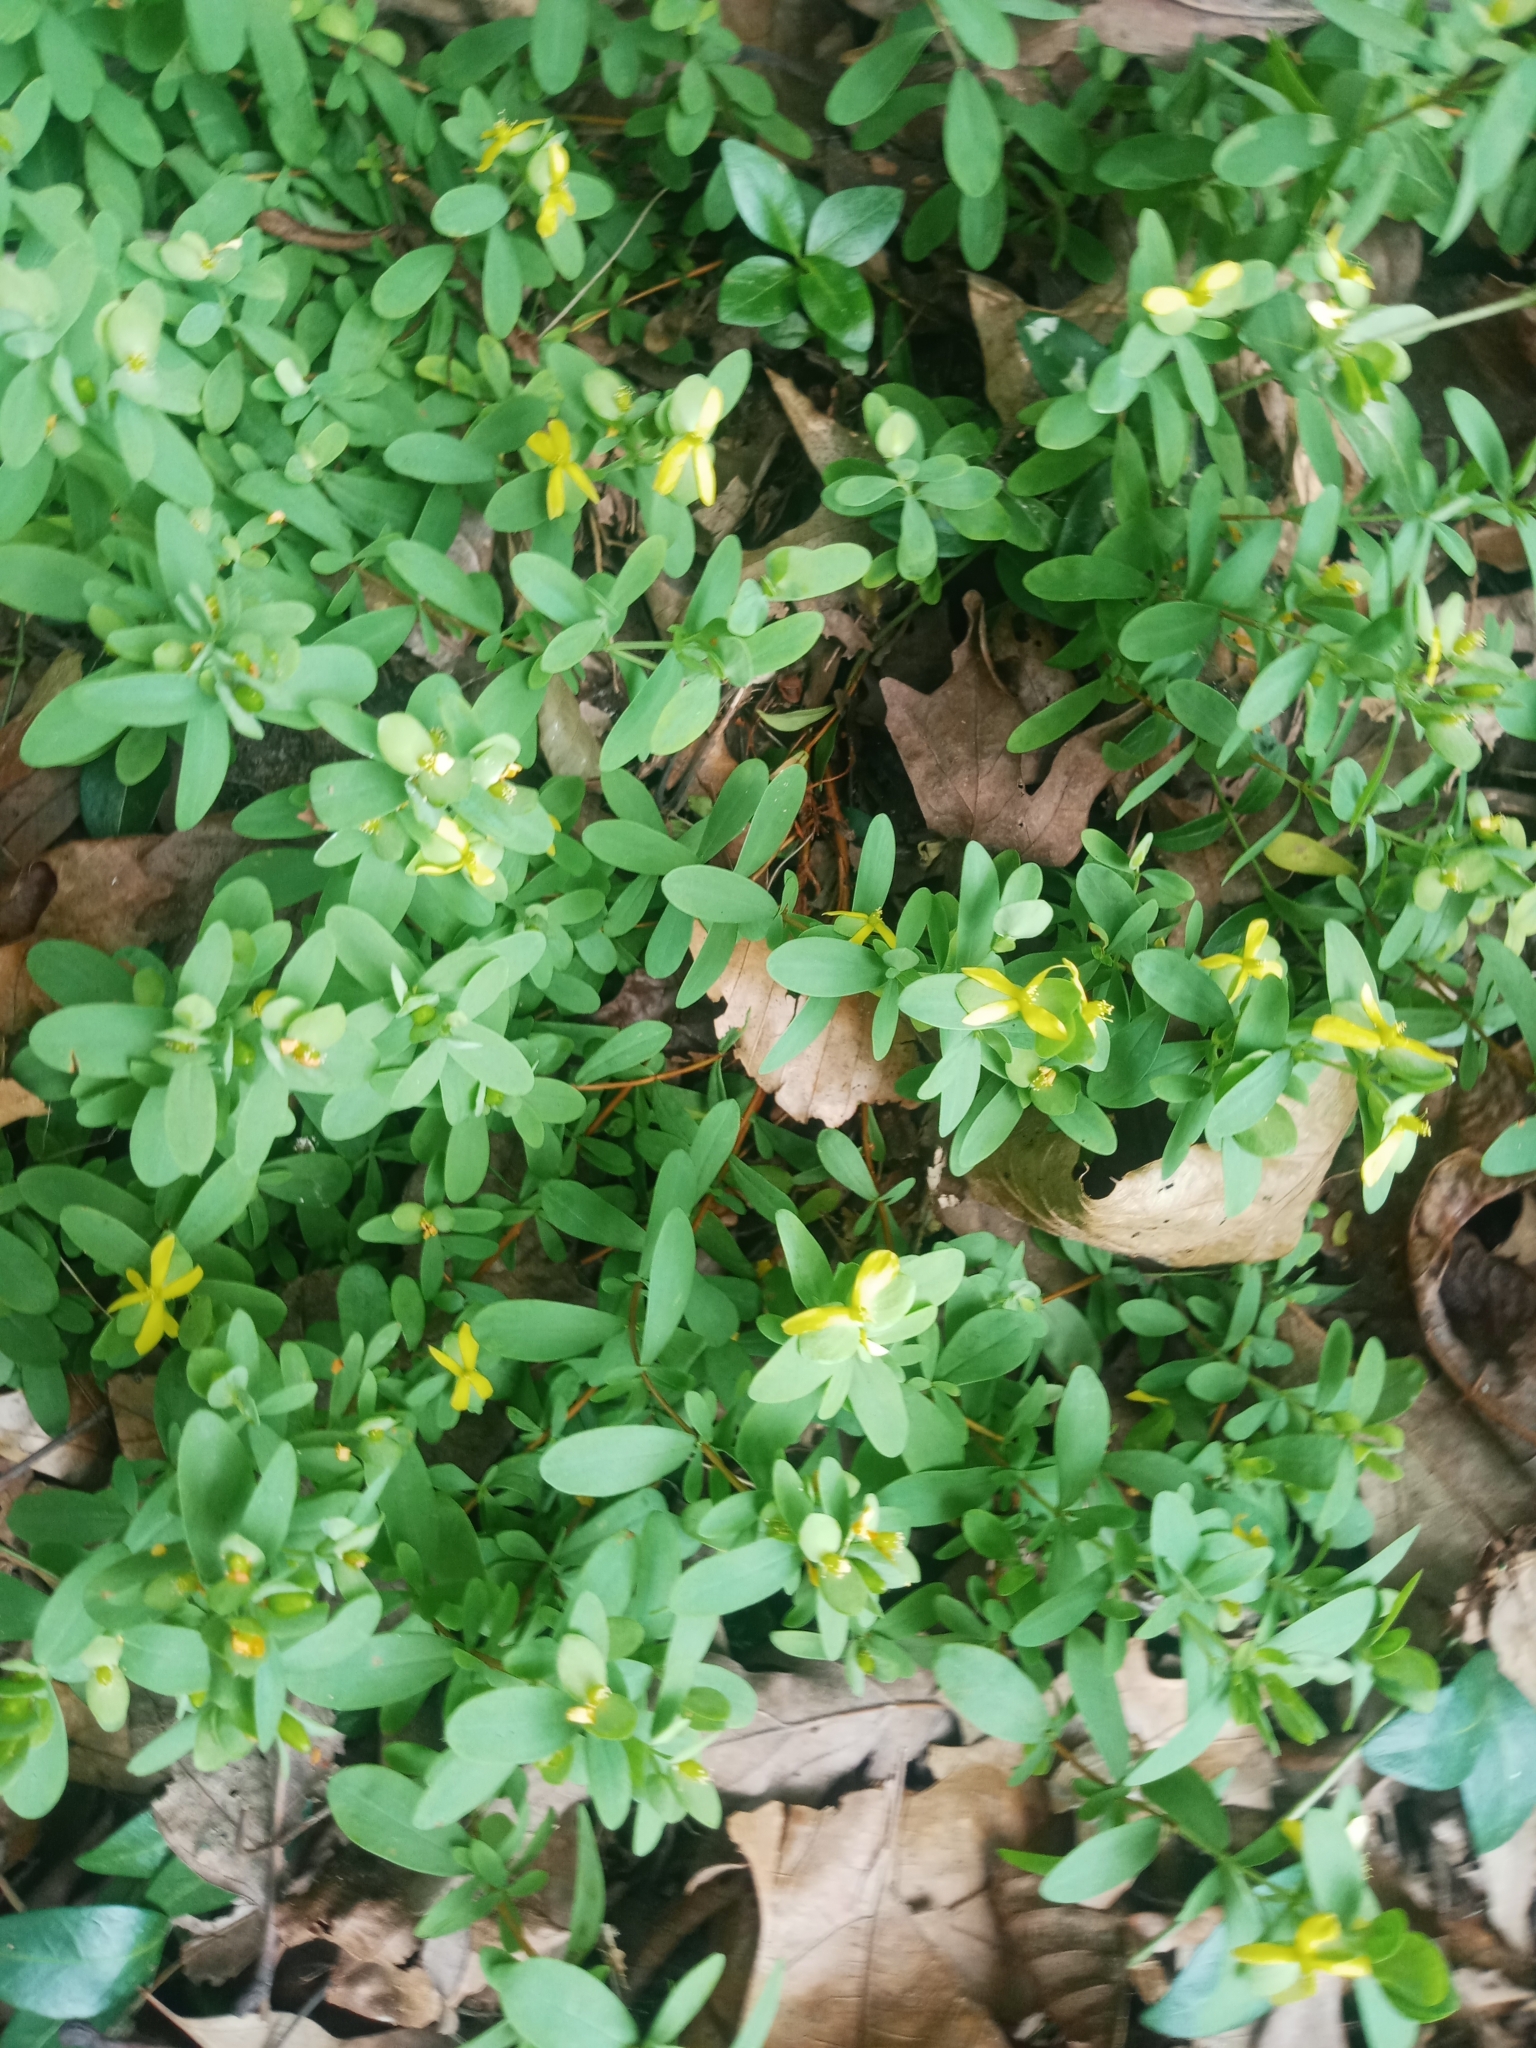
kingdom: Plantae
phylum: Tracheophyta
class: Magnoliopsida
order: Malpighiales
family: Hypericaceae
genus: Hypericum
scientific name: Hypericum hypericoides
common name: St. andrew's cross
